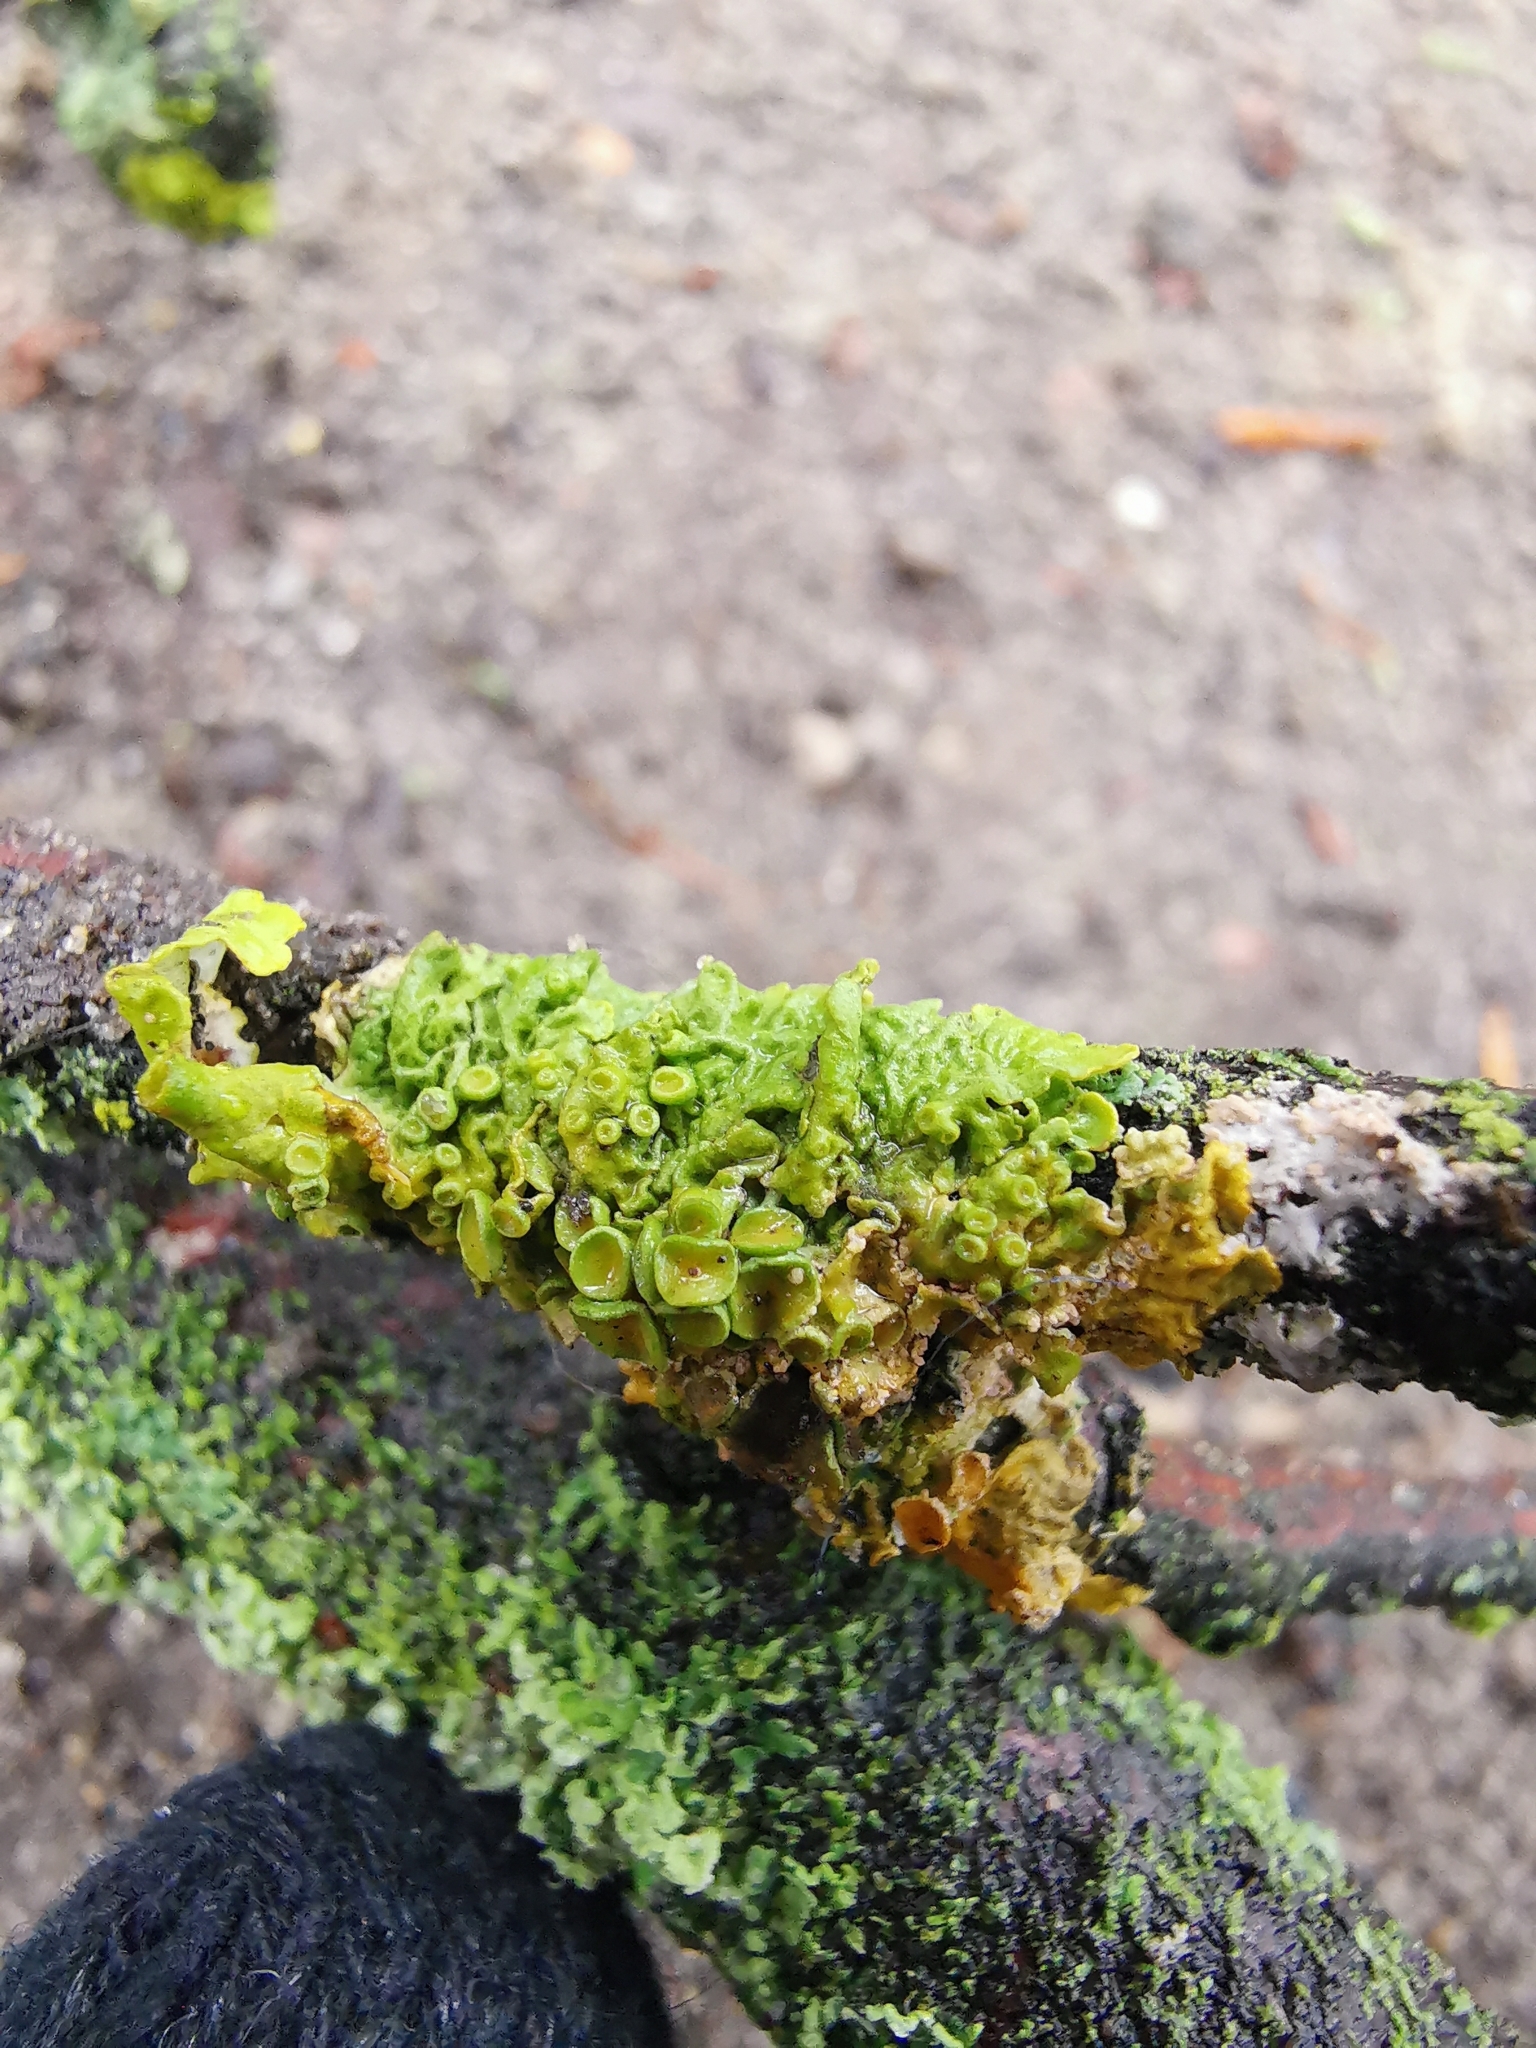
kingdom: Fungi
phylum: Ascomycota
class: Lecanoromycetes
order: Teloschistales
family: Teloschistaceae
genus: Xanthoria
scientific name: Xanthoria parietina
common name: Common orange lichen
